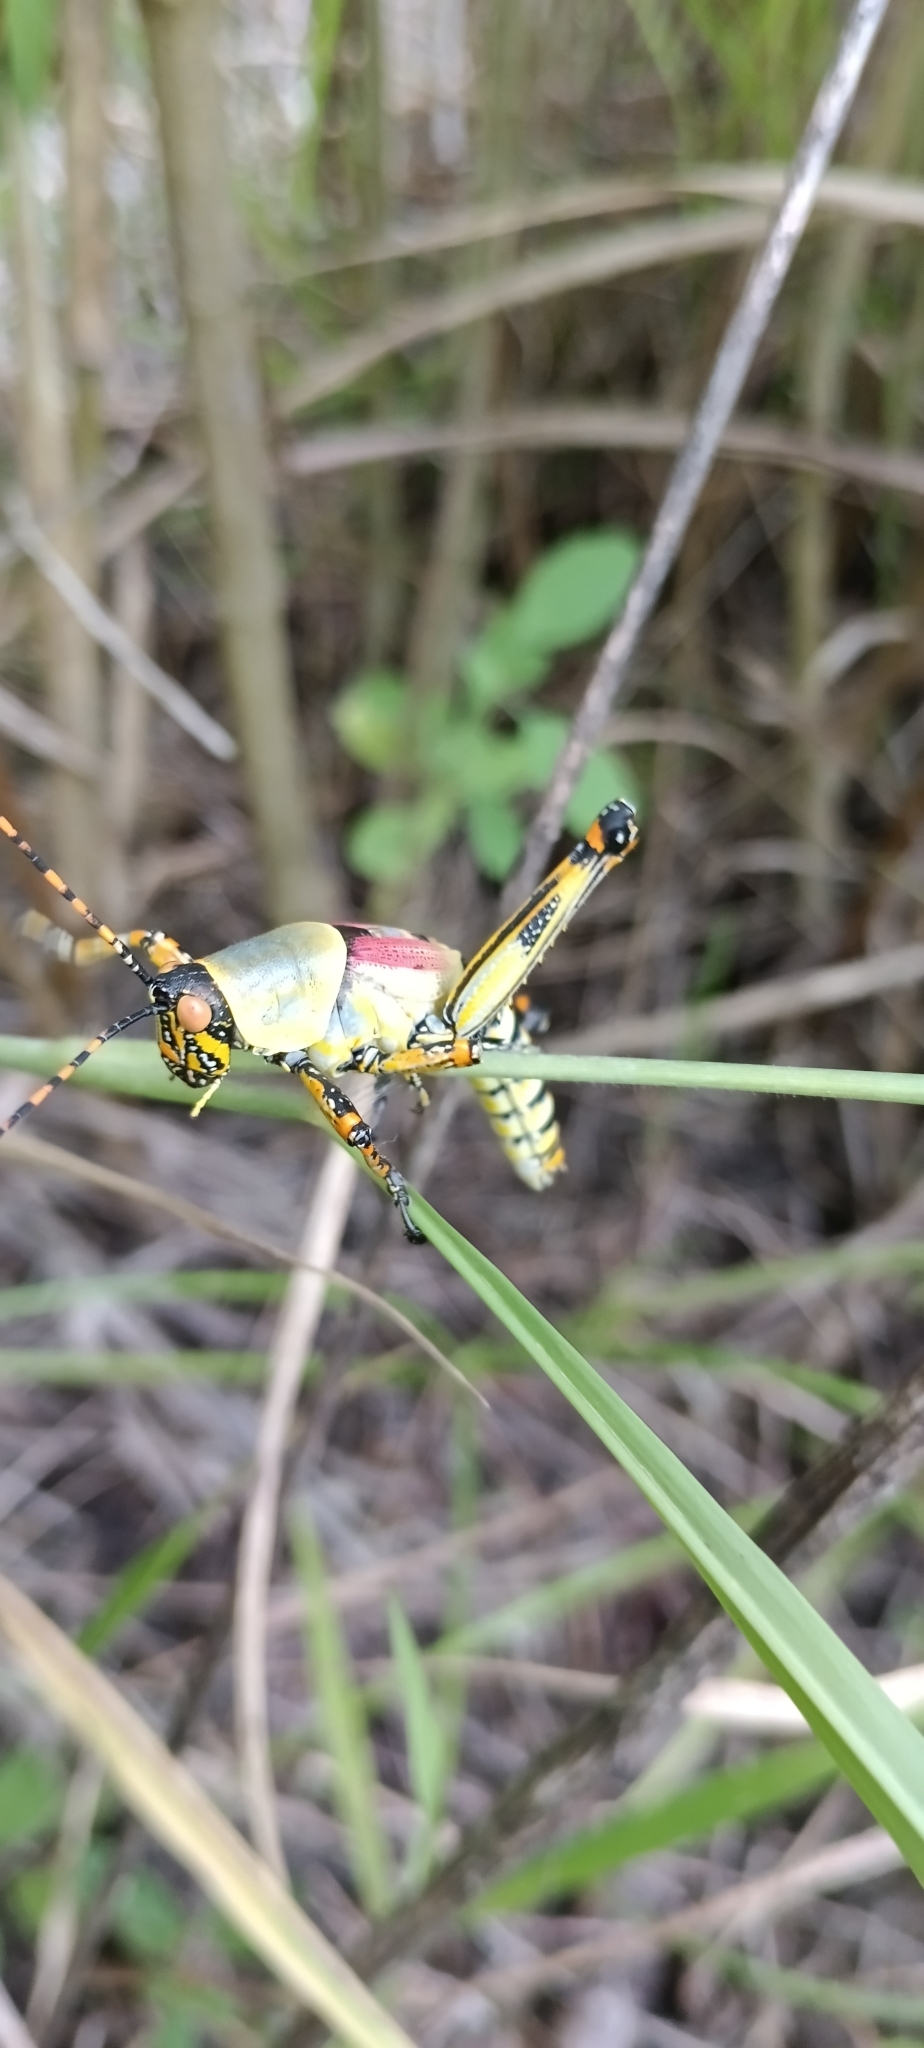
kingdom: Animalia
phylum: Arthropoda
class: Insecta
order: Orthoptera
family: Pyrgomorphidae
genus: Zonocerus
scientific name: Zonocerus elegans
